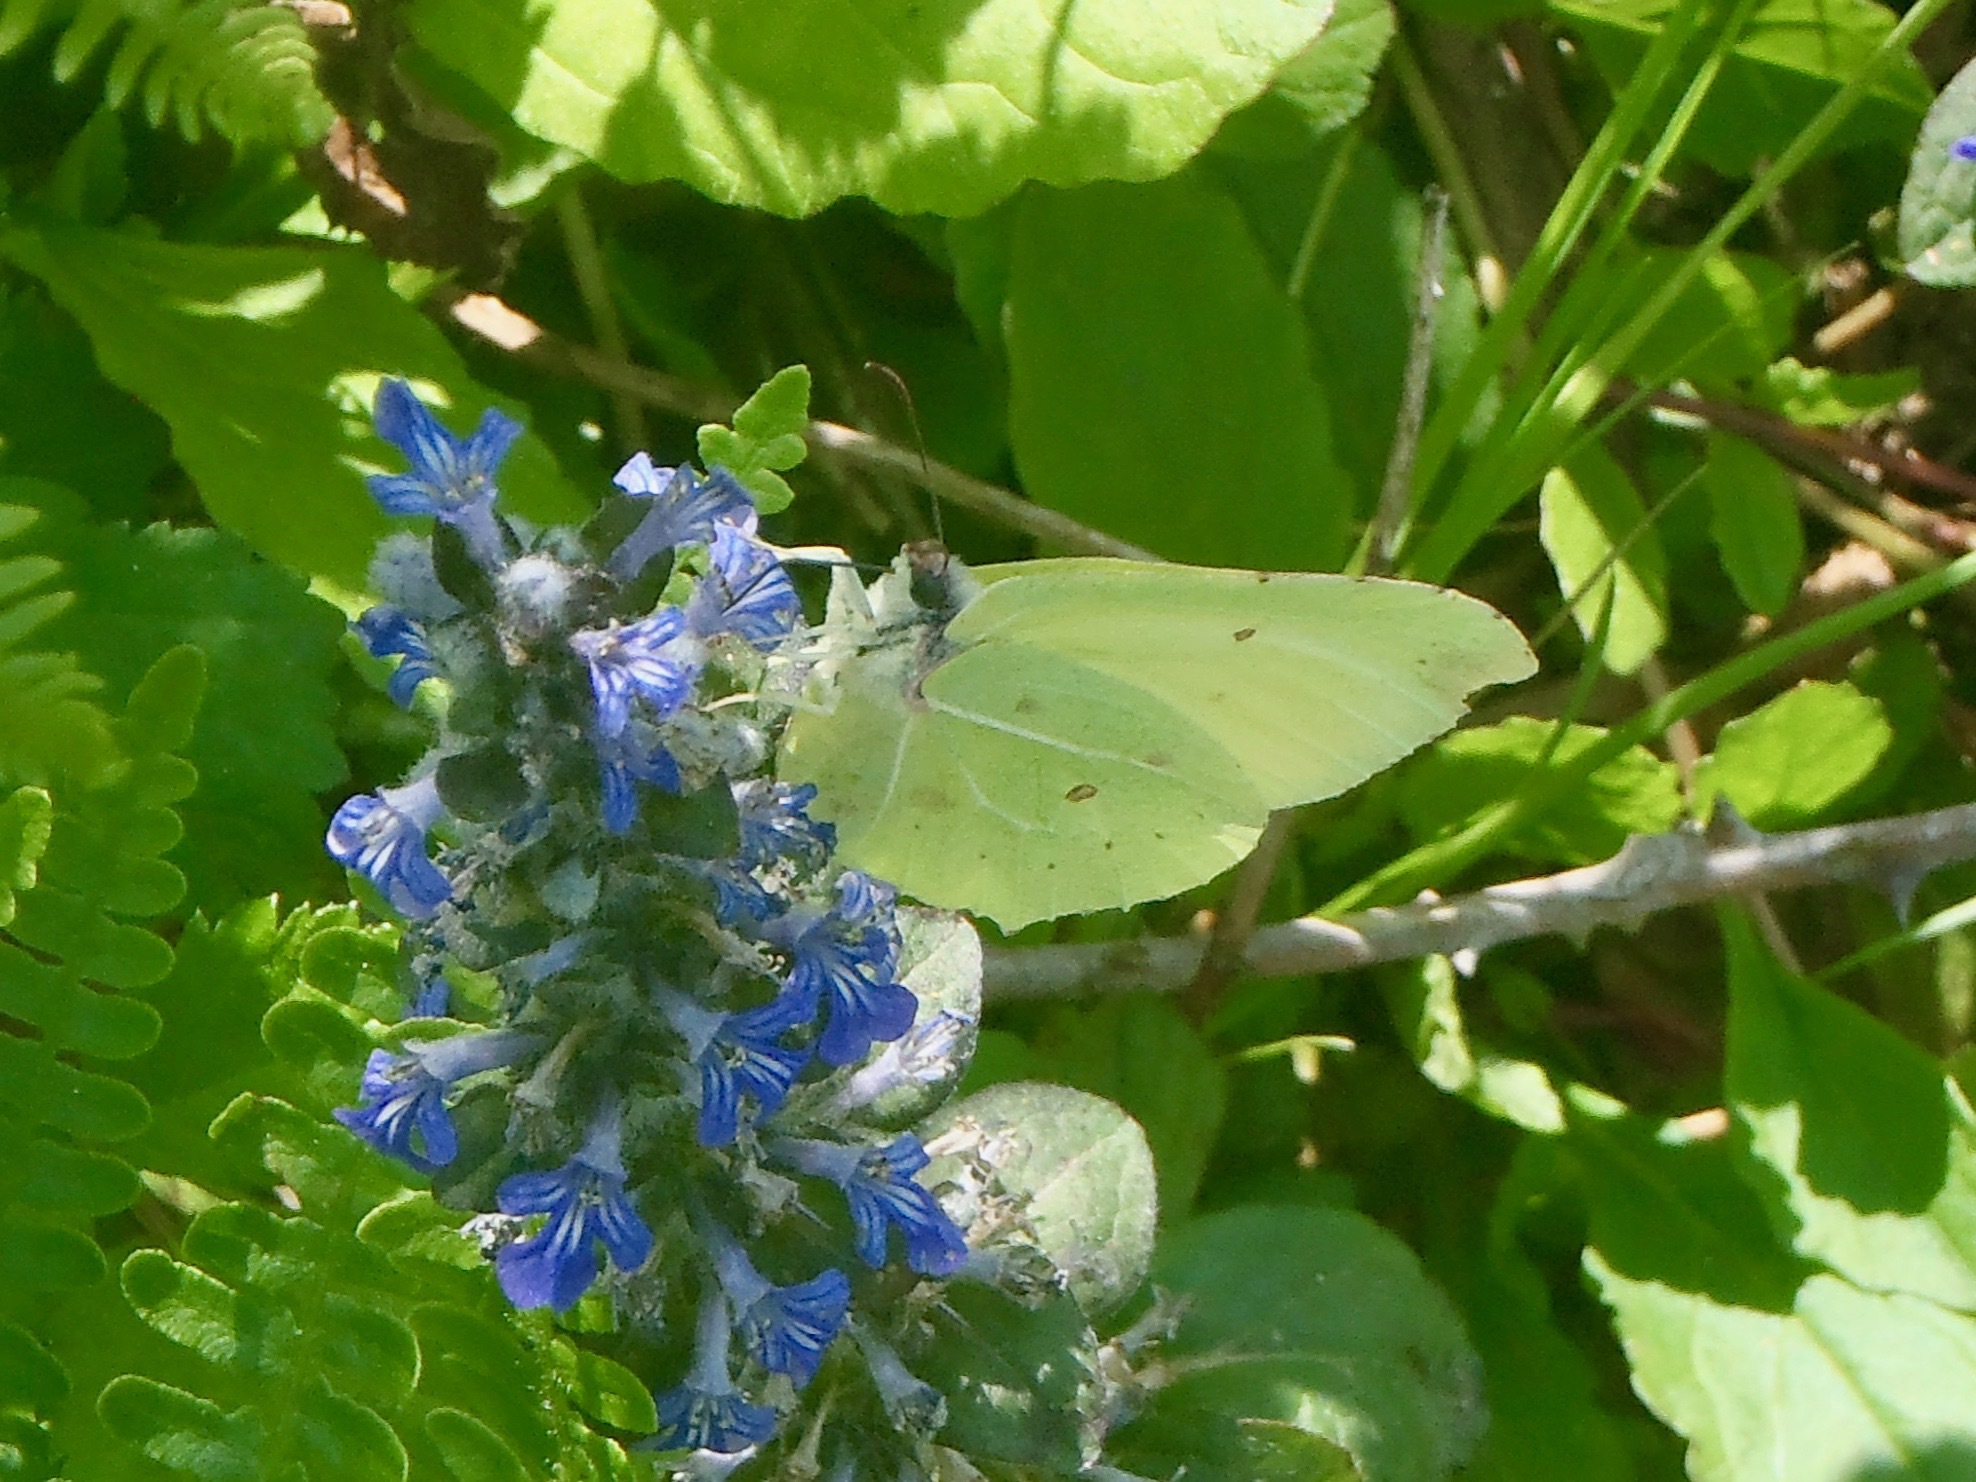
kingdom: Animalia
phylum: Arthropoda
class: Insecta
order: Lepidoptera
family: Pieridae
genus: Gonepteryx
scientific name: Gonepteryx rhamni
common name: Brimstone
